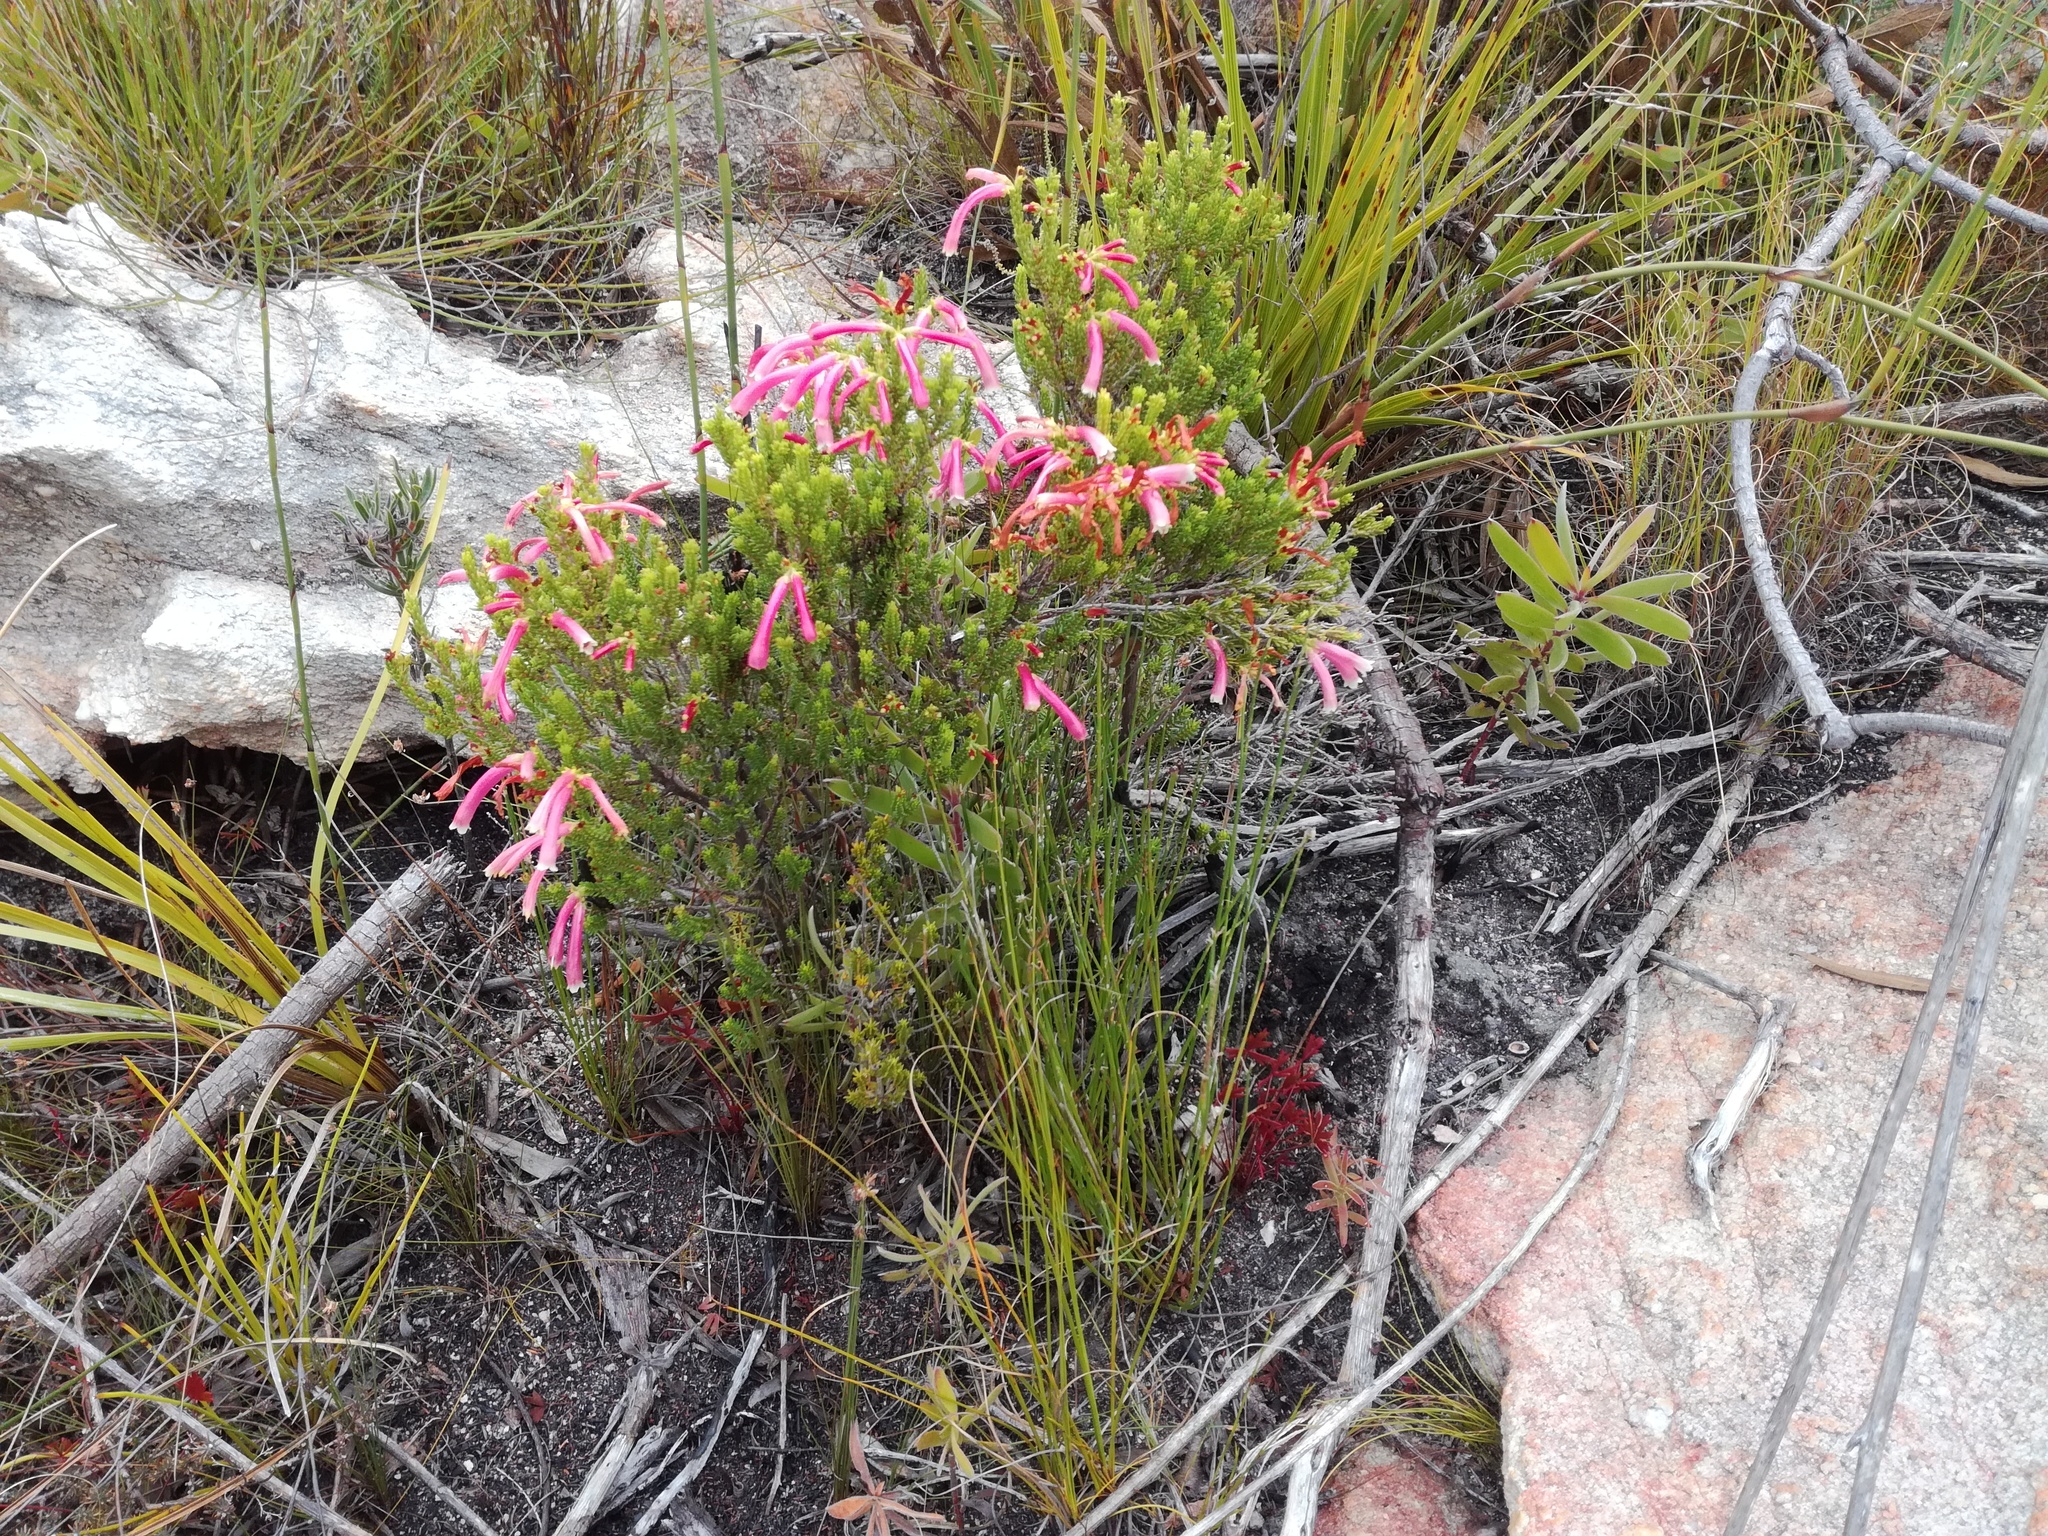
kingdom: Plantae
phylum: Tracheophyta
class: Magnoliopsida
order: Ericales
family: Ericaceae
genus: Erica
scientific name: Erica discolor
